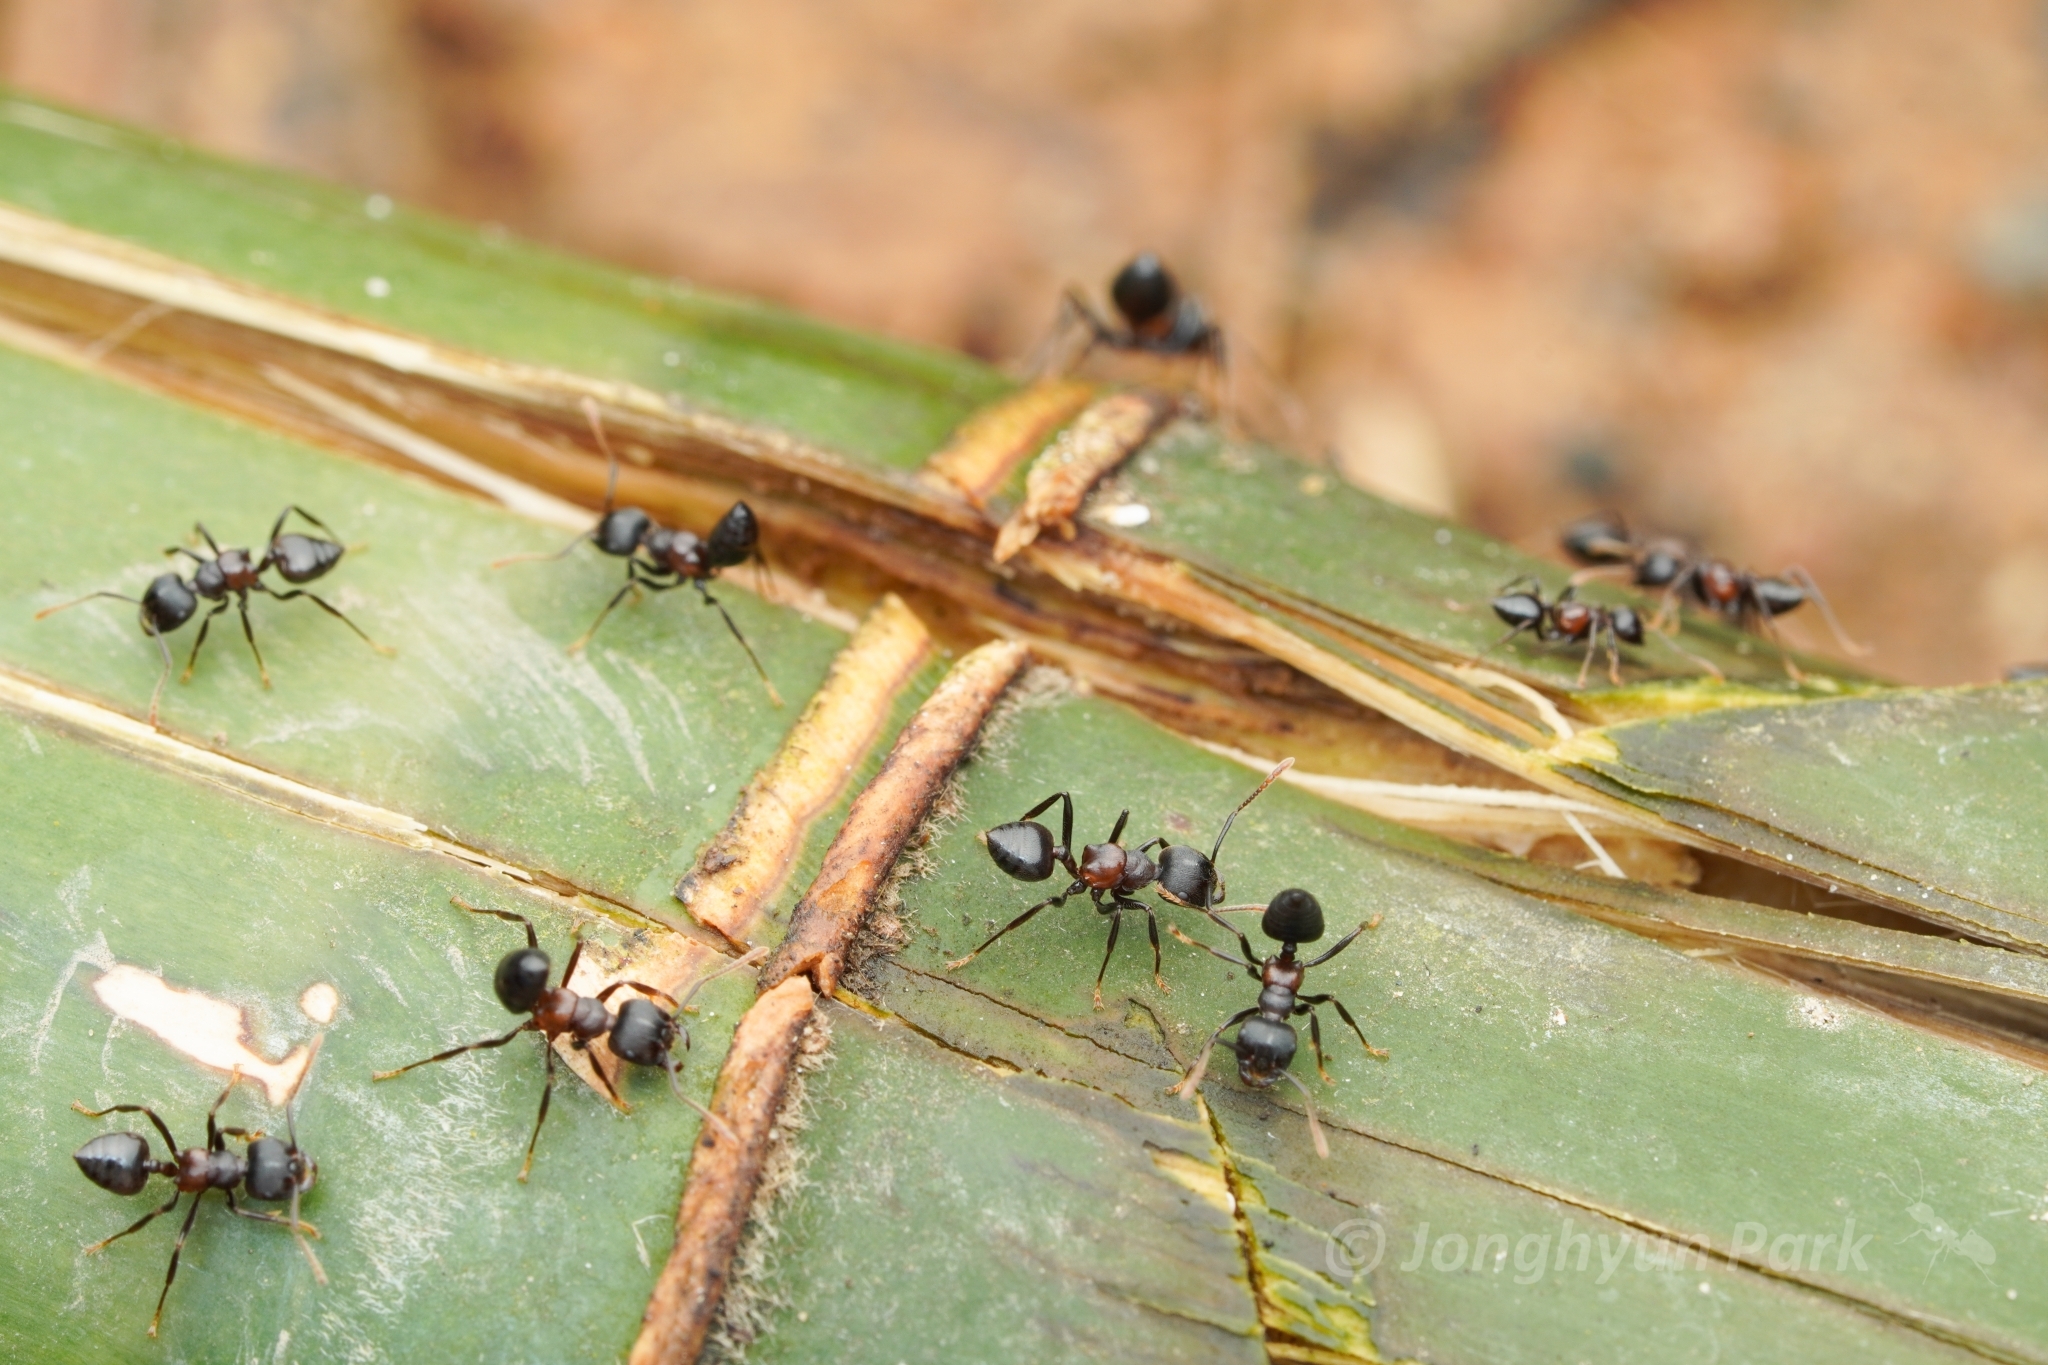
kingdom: Animalia
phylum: Arthropoda
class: Insecta
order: Hymenoptera
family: Formicidae
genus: Crematogaster
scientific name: Crematogaster aurita
